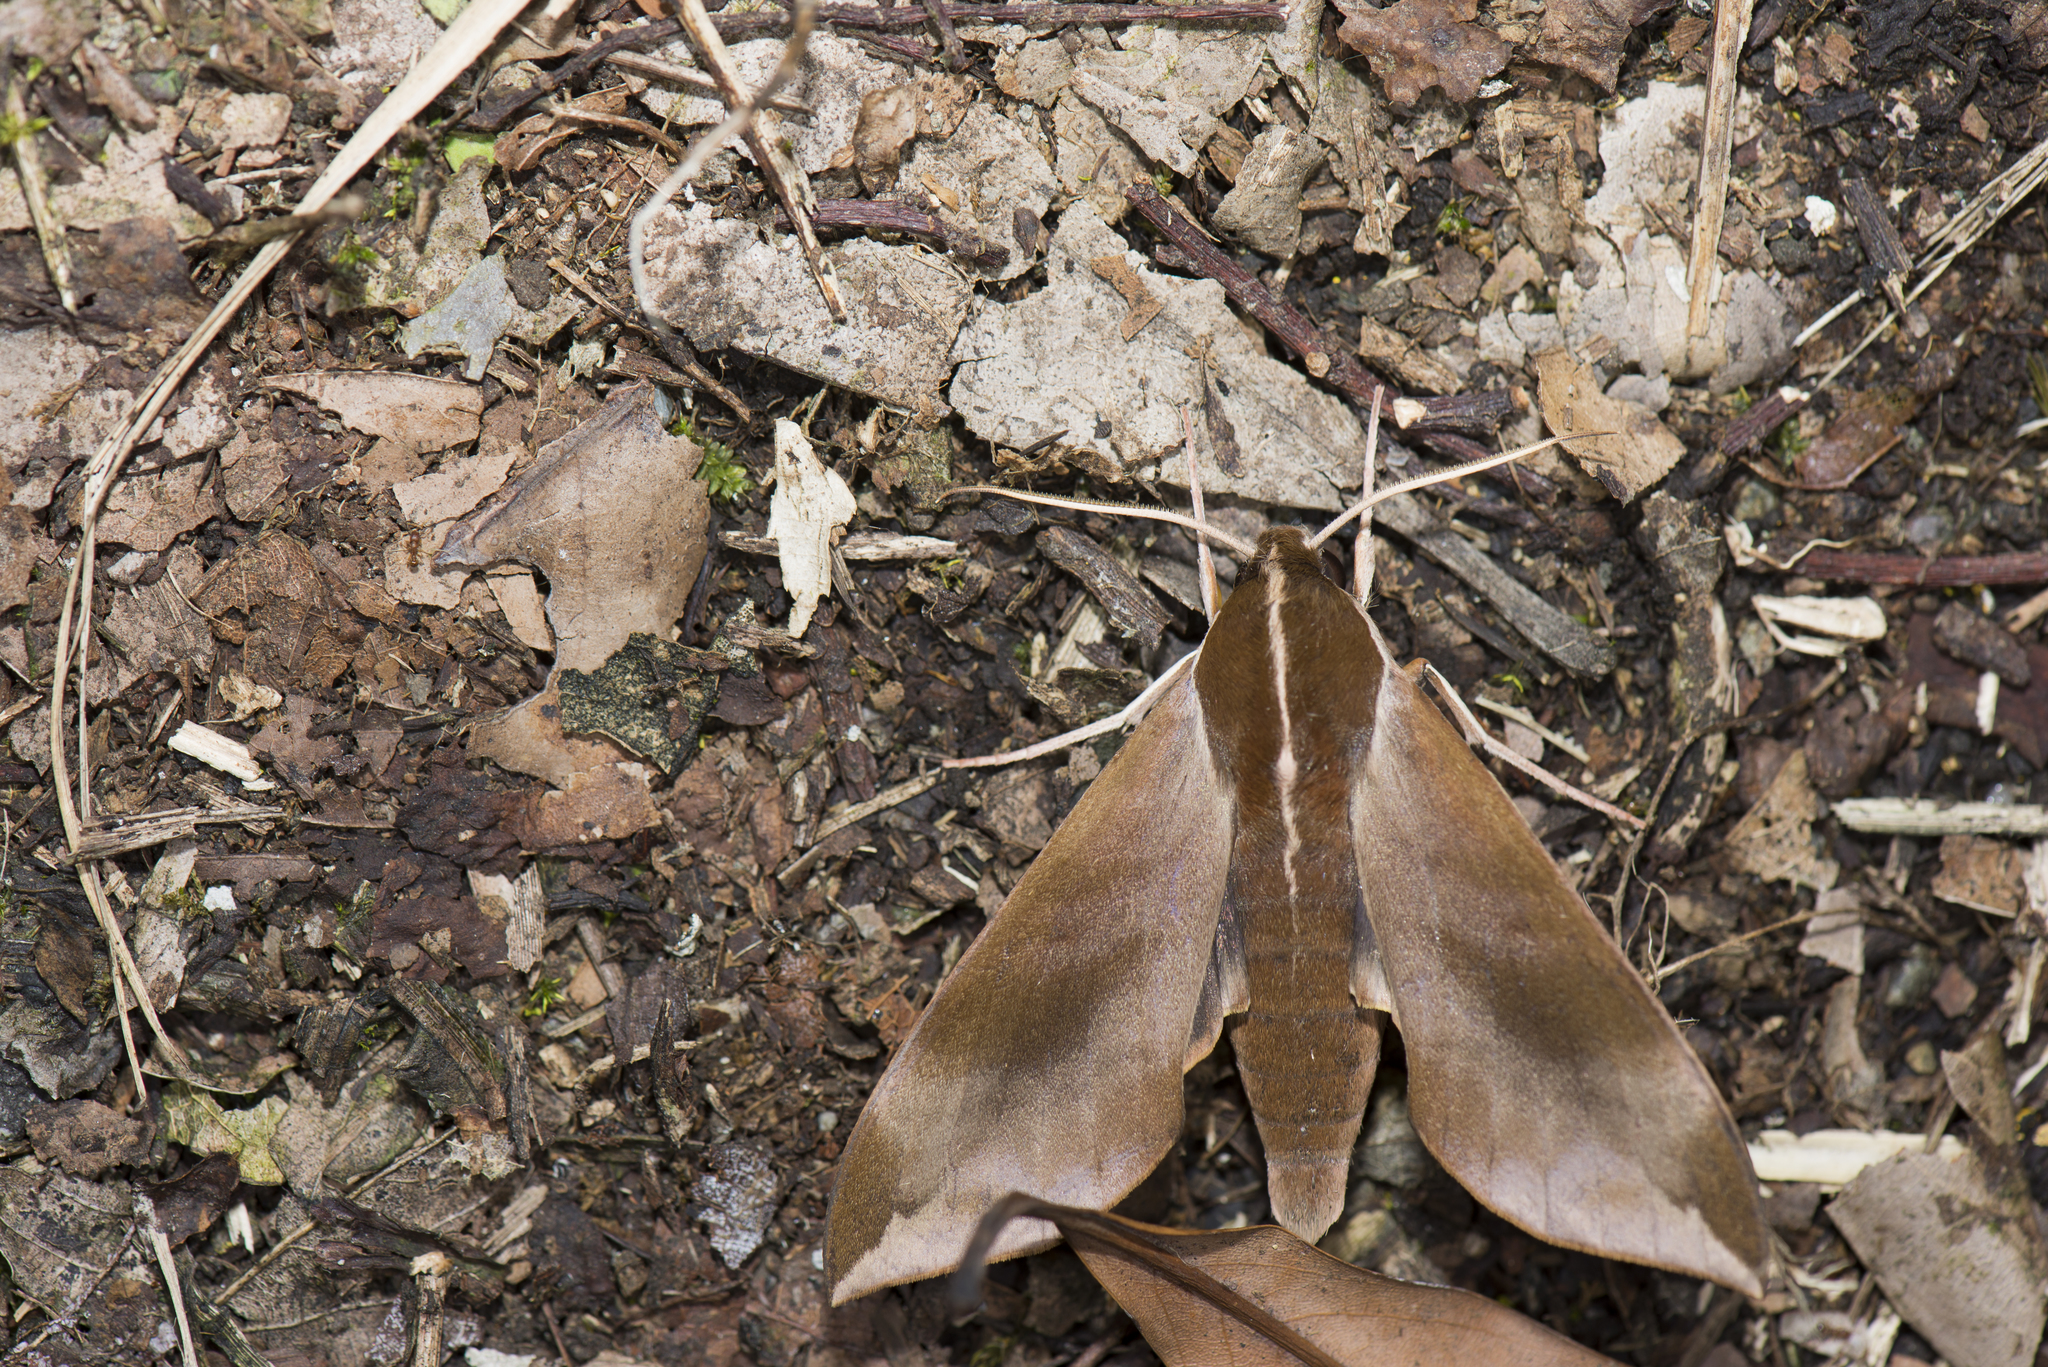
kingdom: Animalia
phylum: Arthropoda
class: Insecta
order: Lepidoptera
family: Sphingidae
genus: Ampelophaga
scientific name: Ampelophaga rubiginosa
